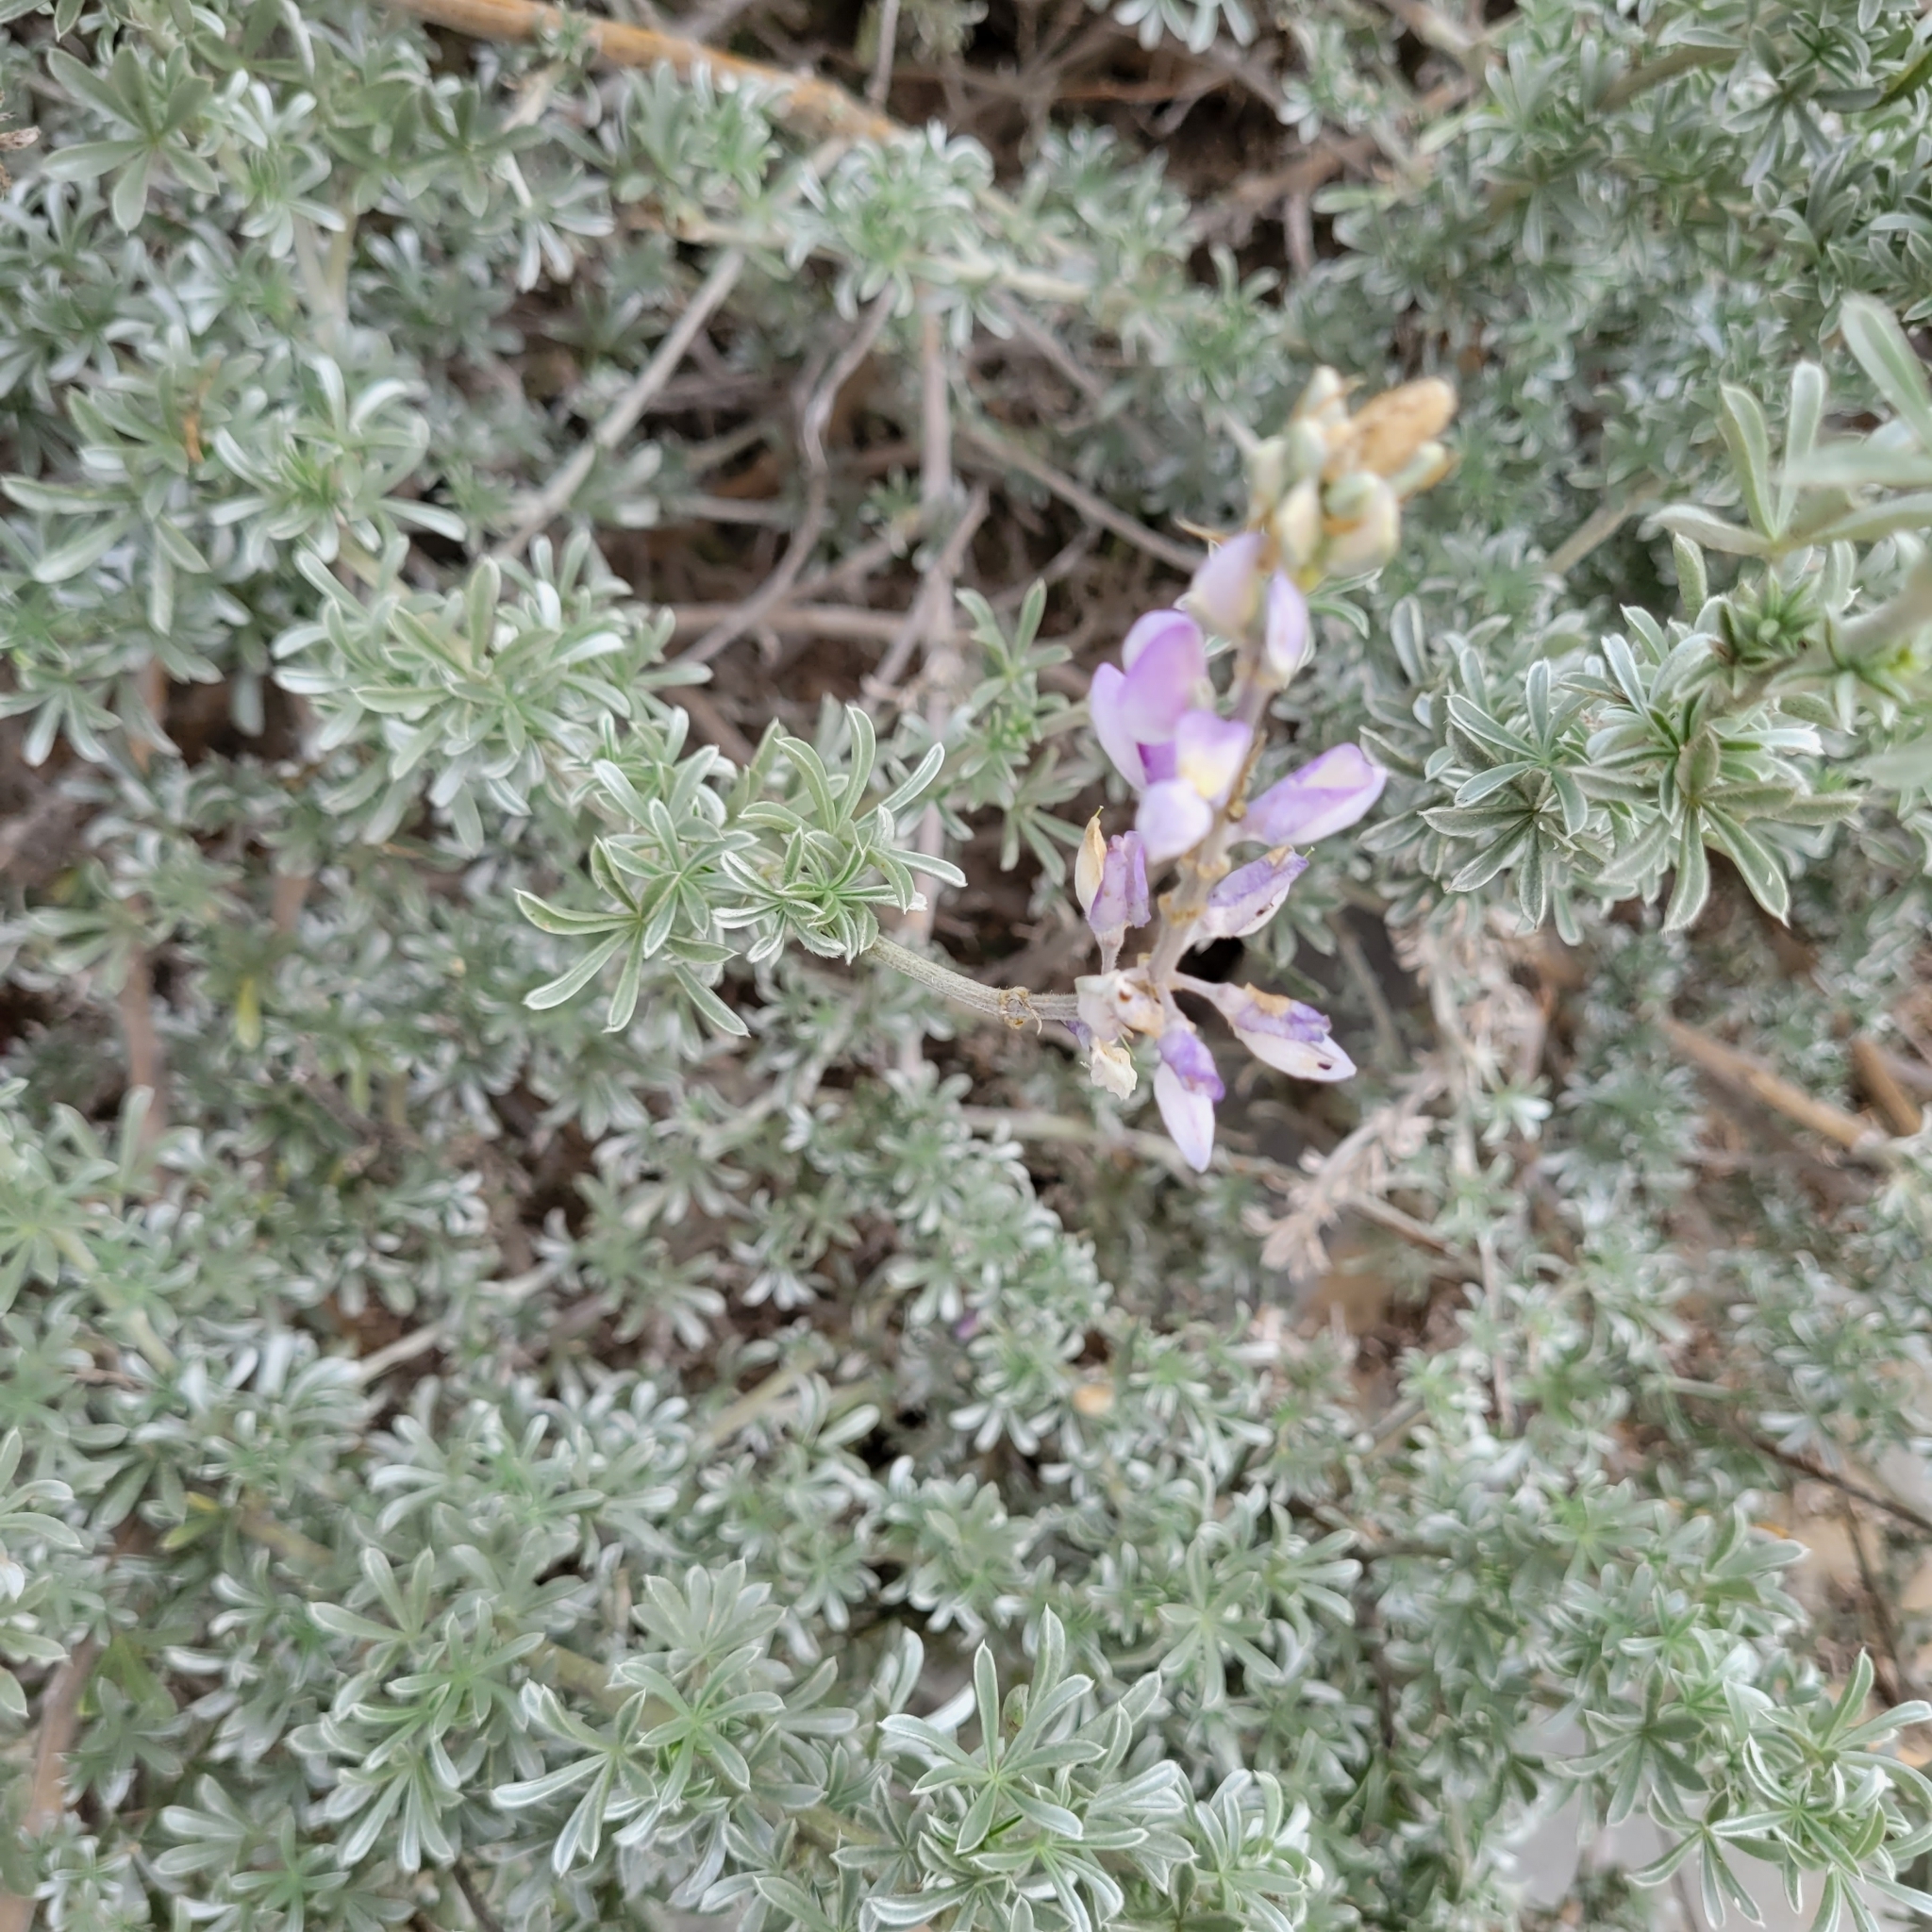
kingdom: Plantae
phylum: Tracheophyta
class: Magnoliopsida
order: Fabales
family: Fabaceae
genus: Lupinus
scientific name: Lupinus chamissonis
